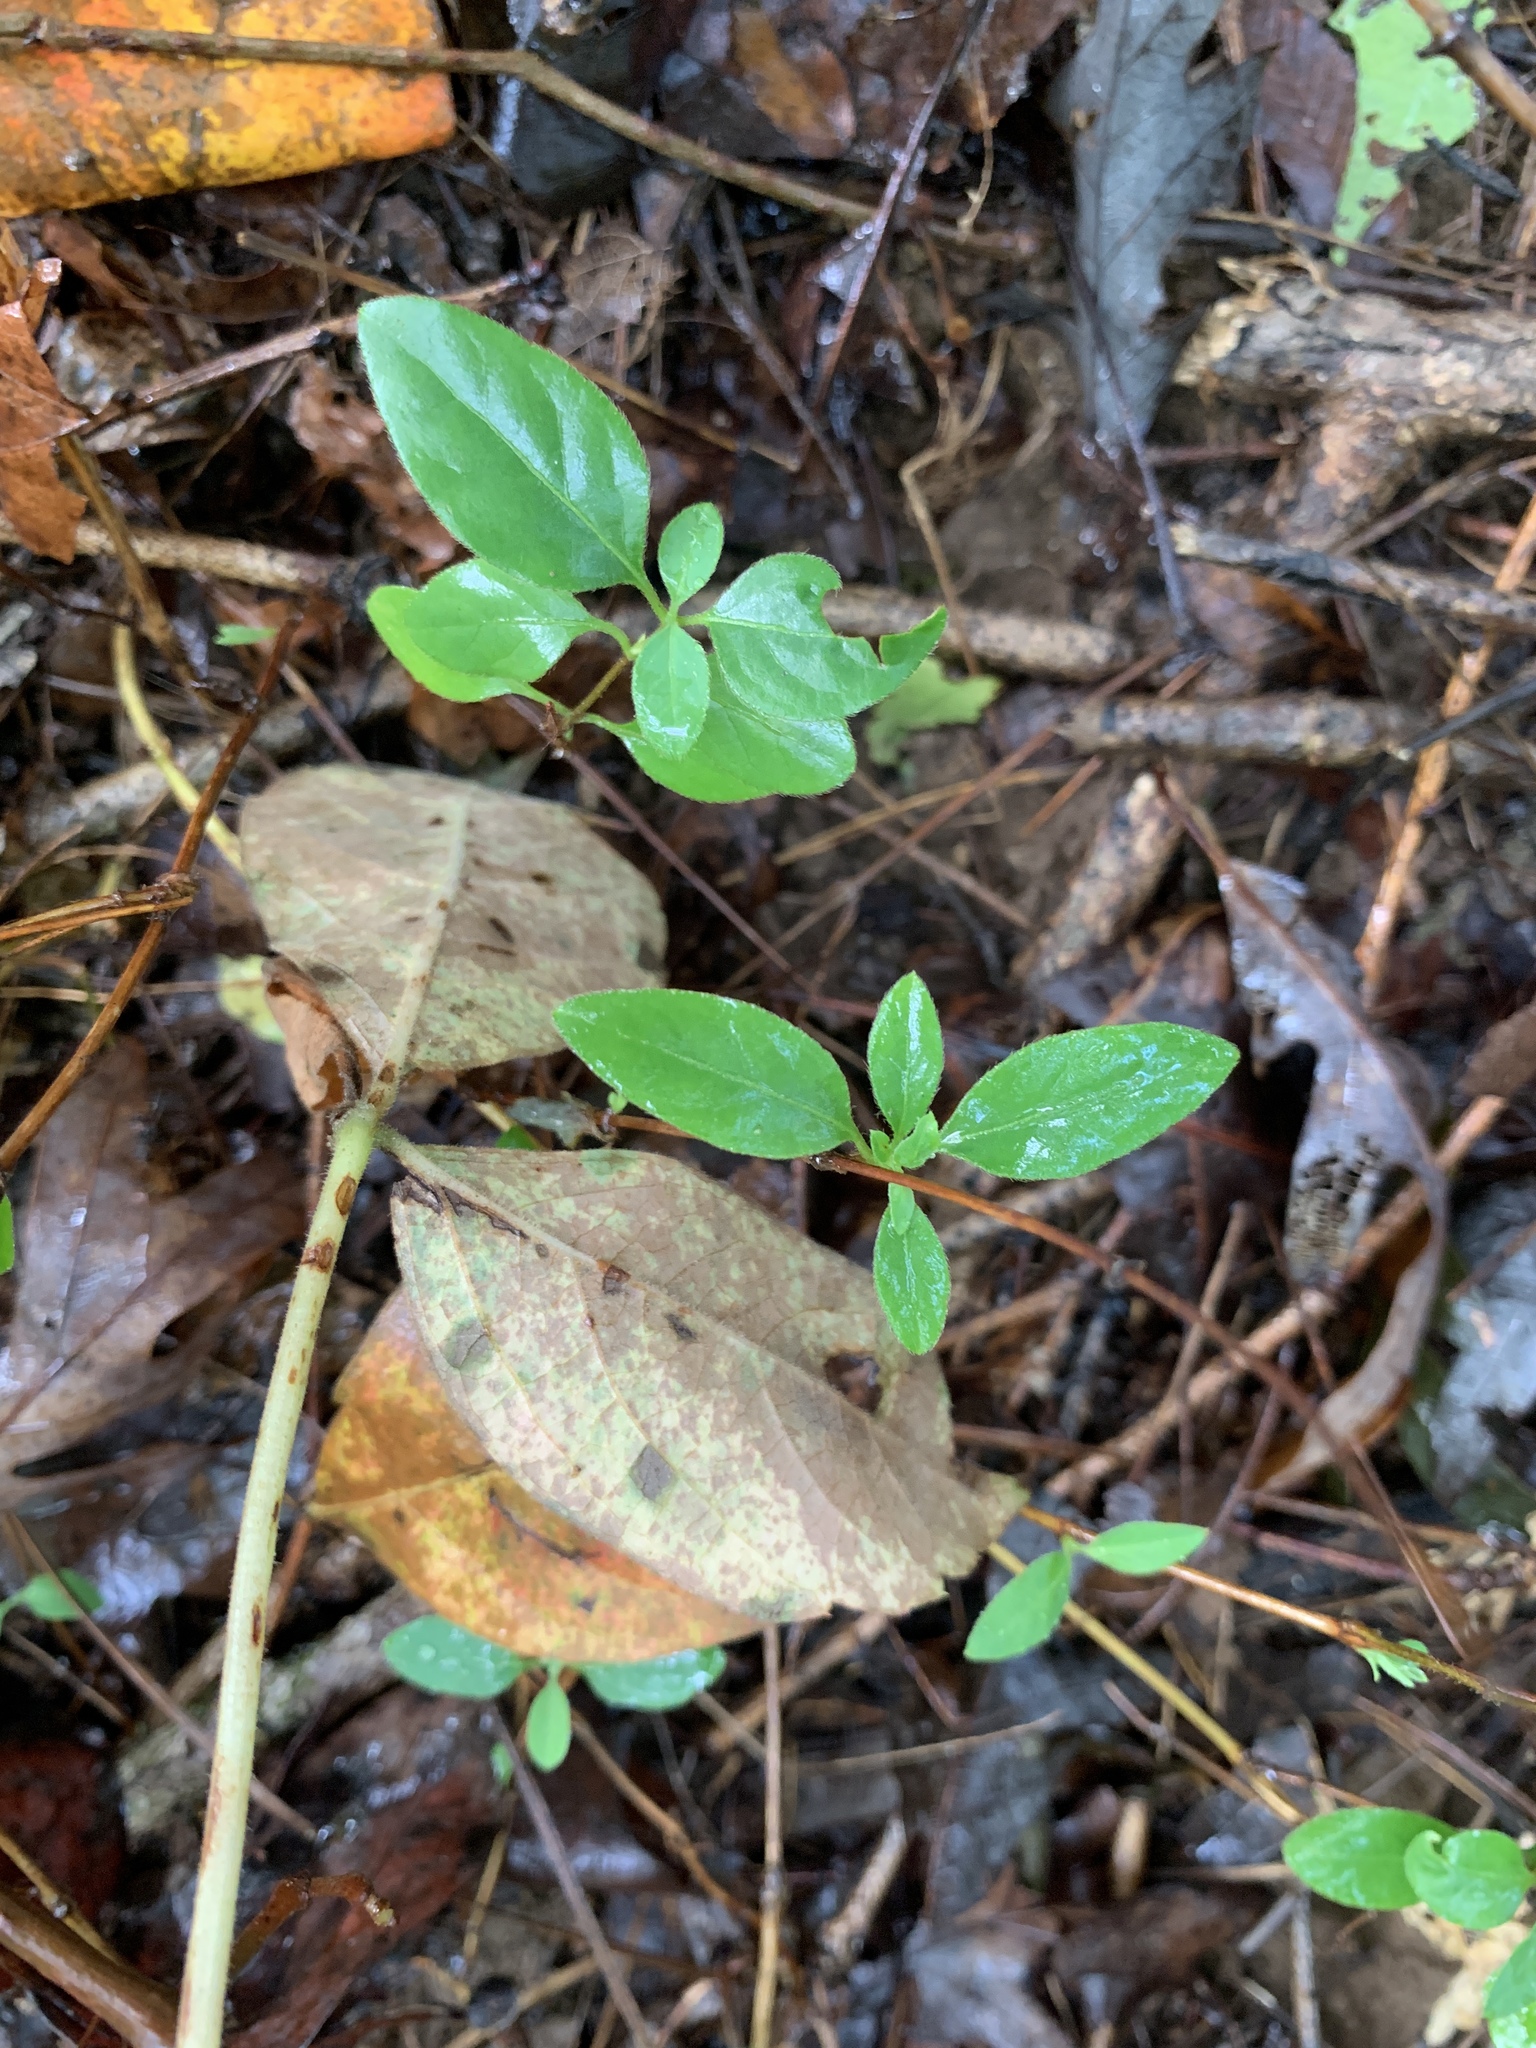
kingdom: Plantae
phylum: Tracheophyta
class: Magnoliopsida
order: Dipsacales
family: Caprifoliaceae
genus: Lonicera
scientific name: Lonicera japonica
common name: Japanese honeysuckle
